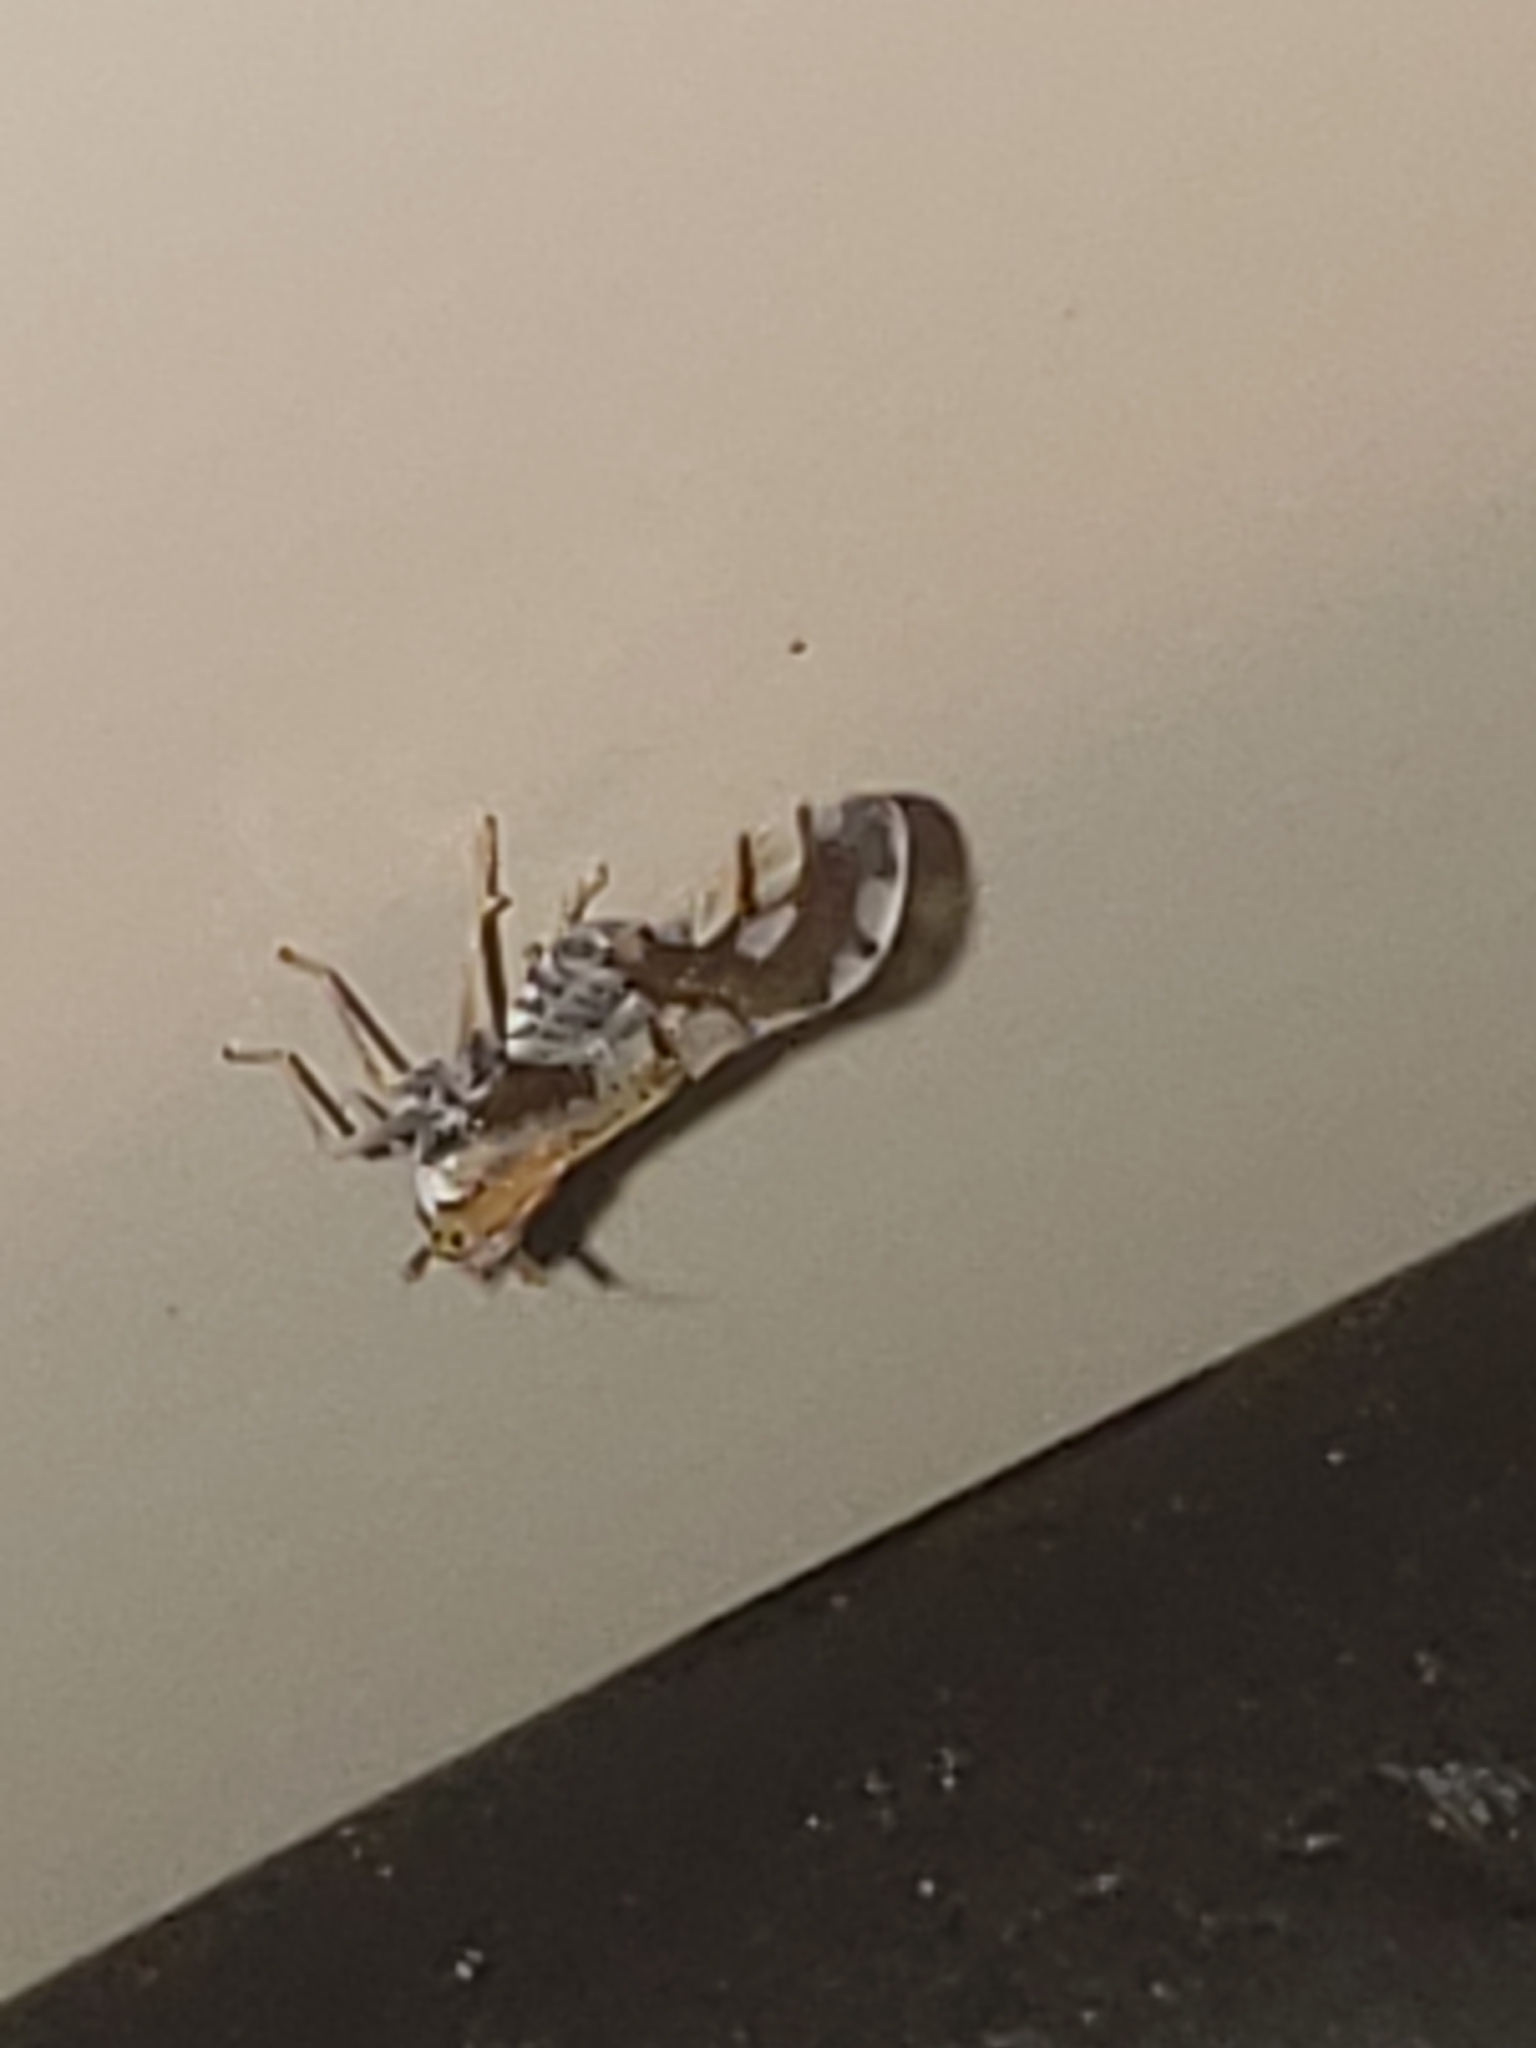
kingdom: Animalia
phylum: Arthropoda
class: Insecta
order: Hemiptera
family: Delphacidae
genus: Liburniella
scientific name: Liburniella ornata
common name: Ornate planthopper
